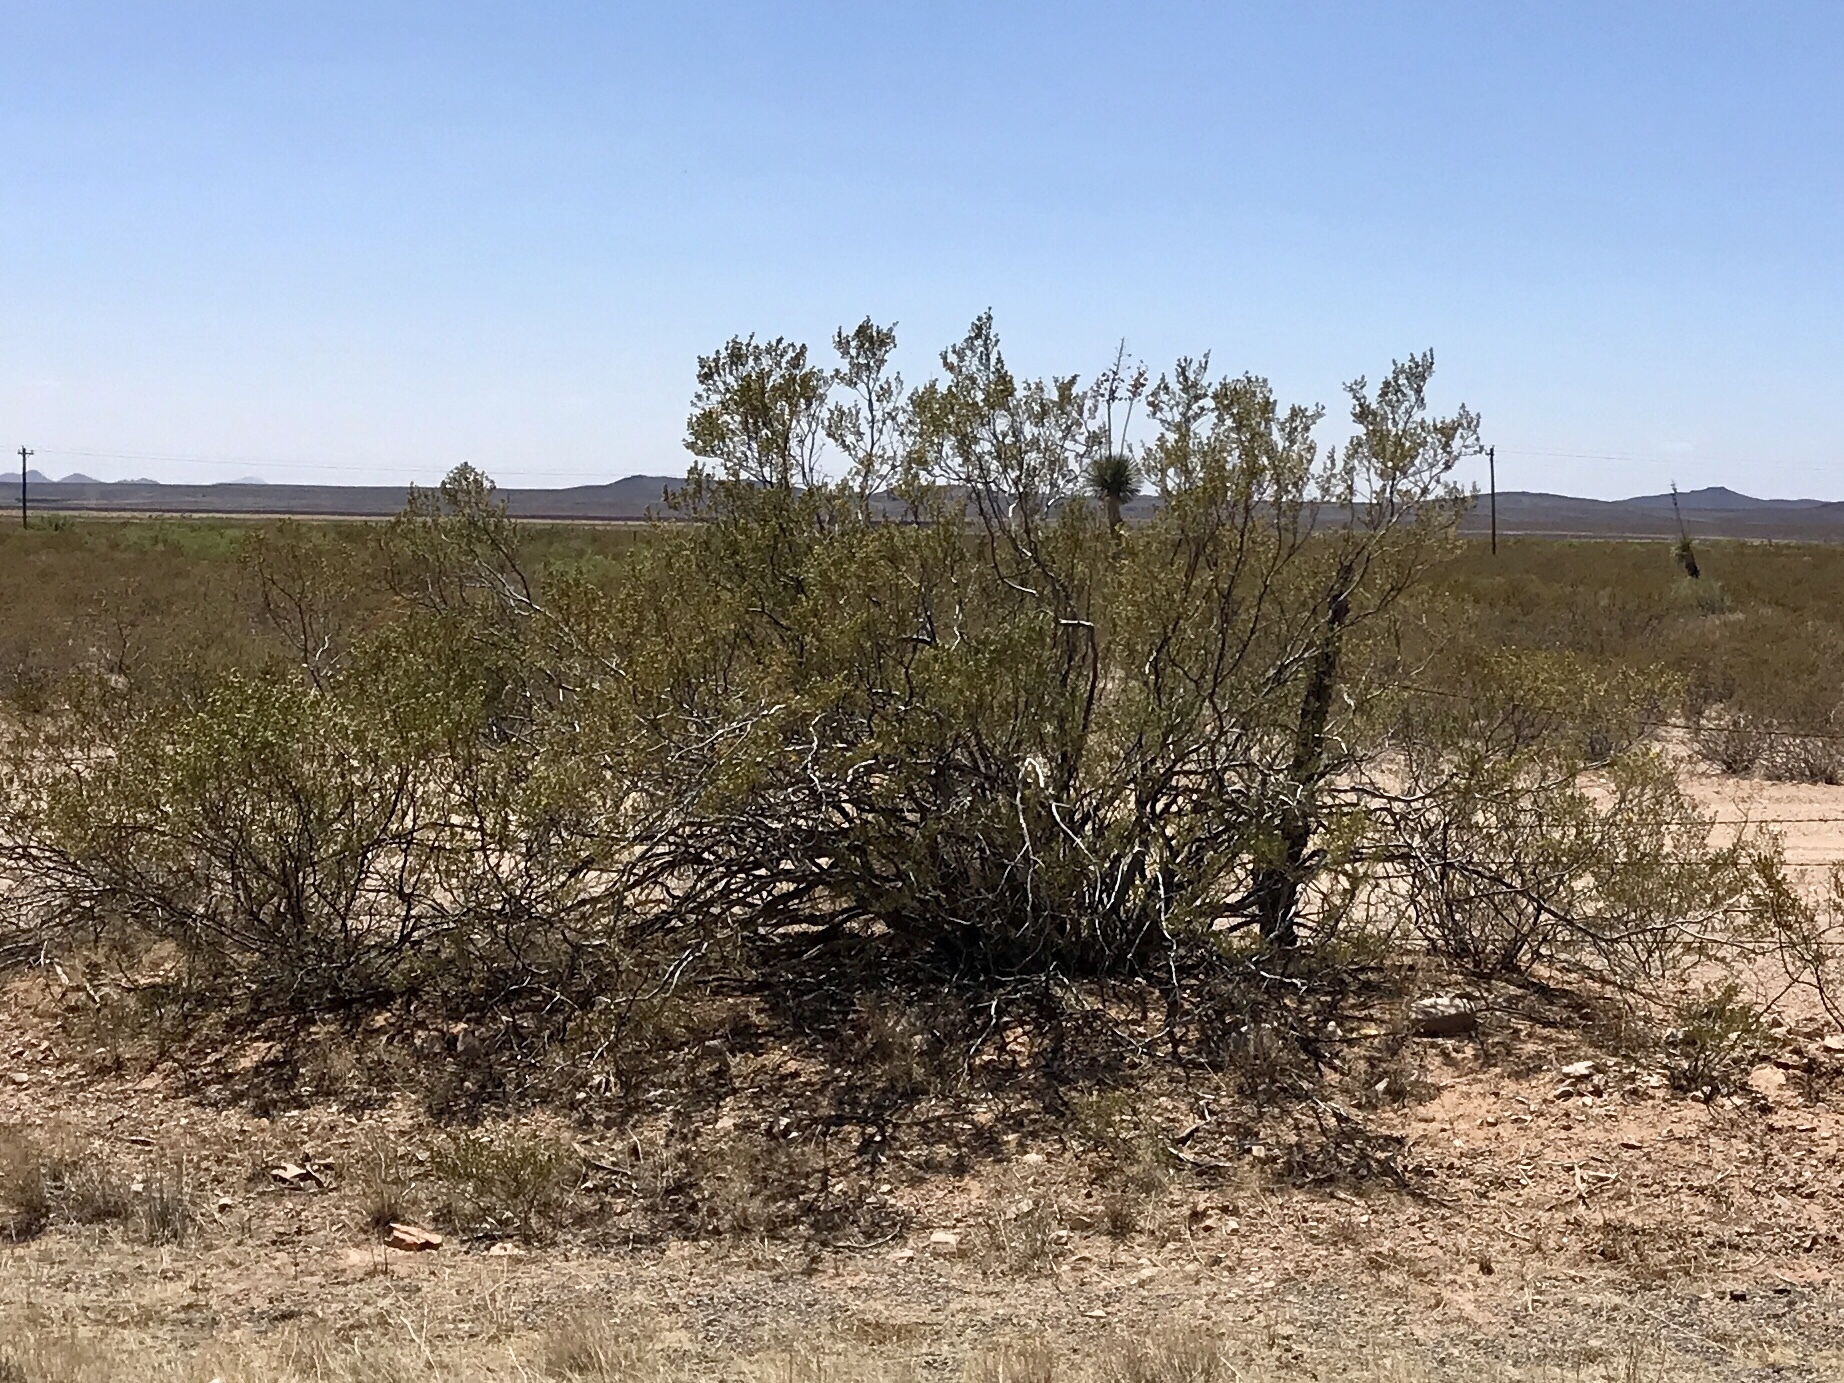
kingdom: Plantae
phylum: Tracheophyta
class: Magnoliopsida
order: Zygophyllales
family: Zygophyllaceae
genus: Larrea
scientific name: Larrea tridentata
